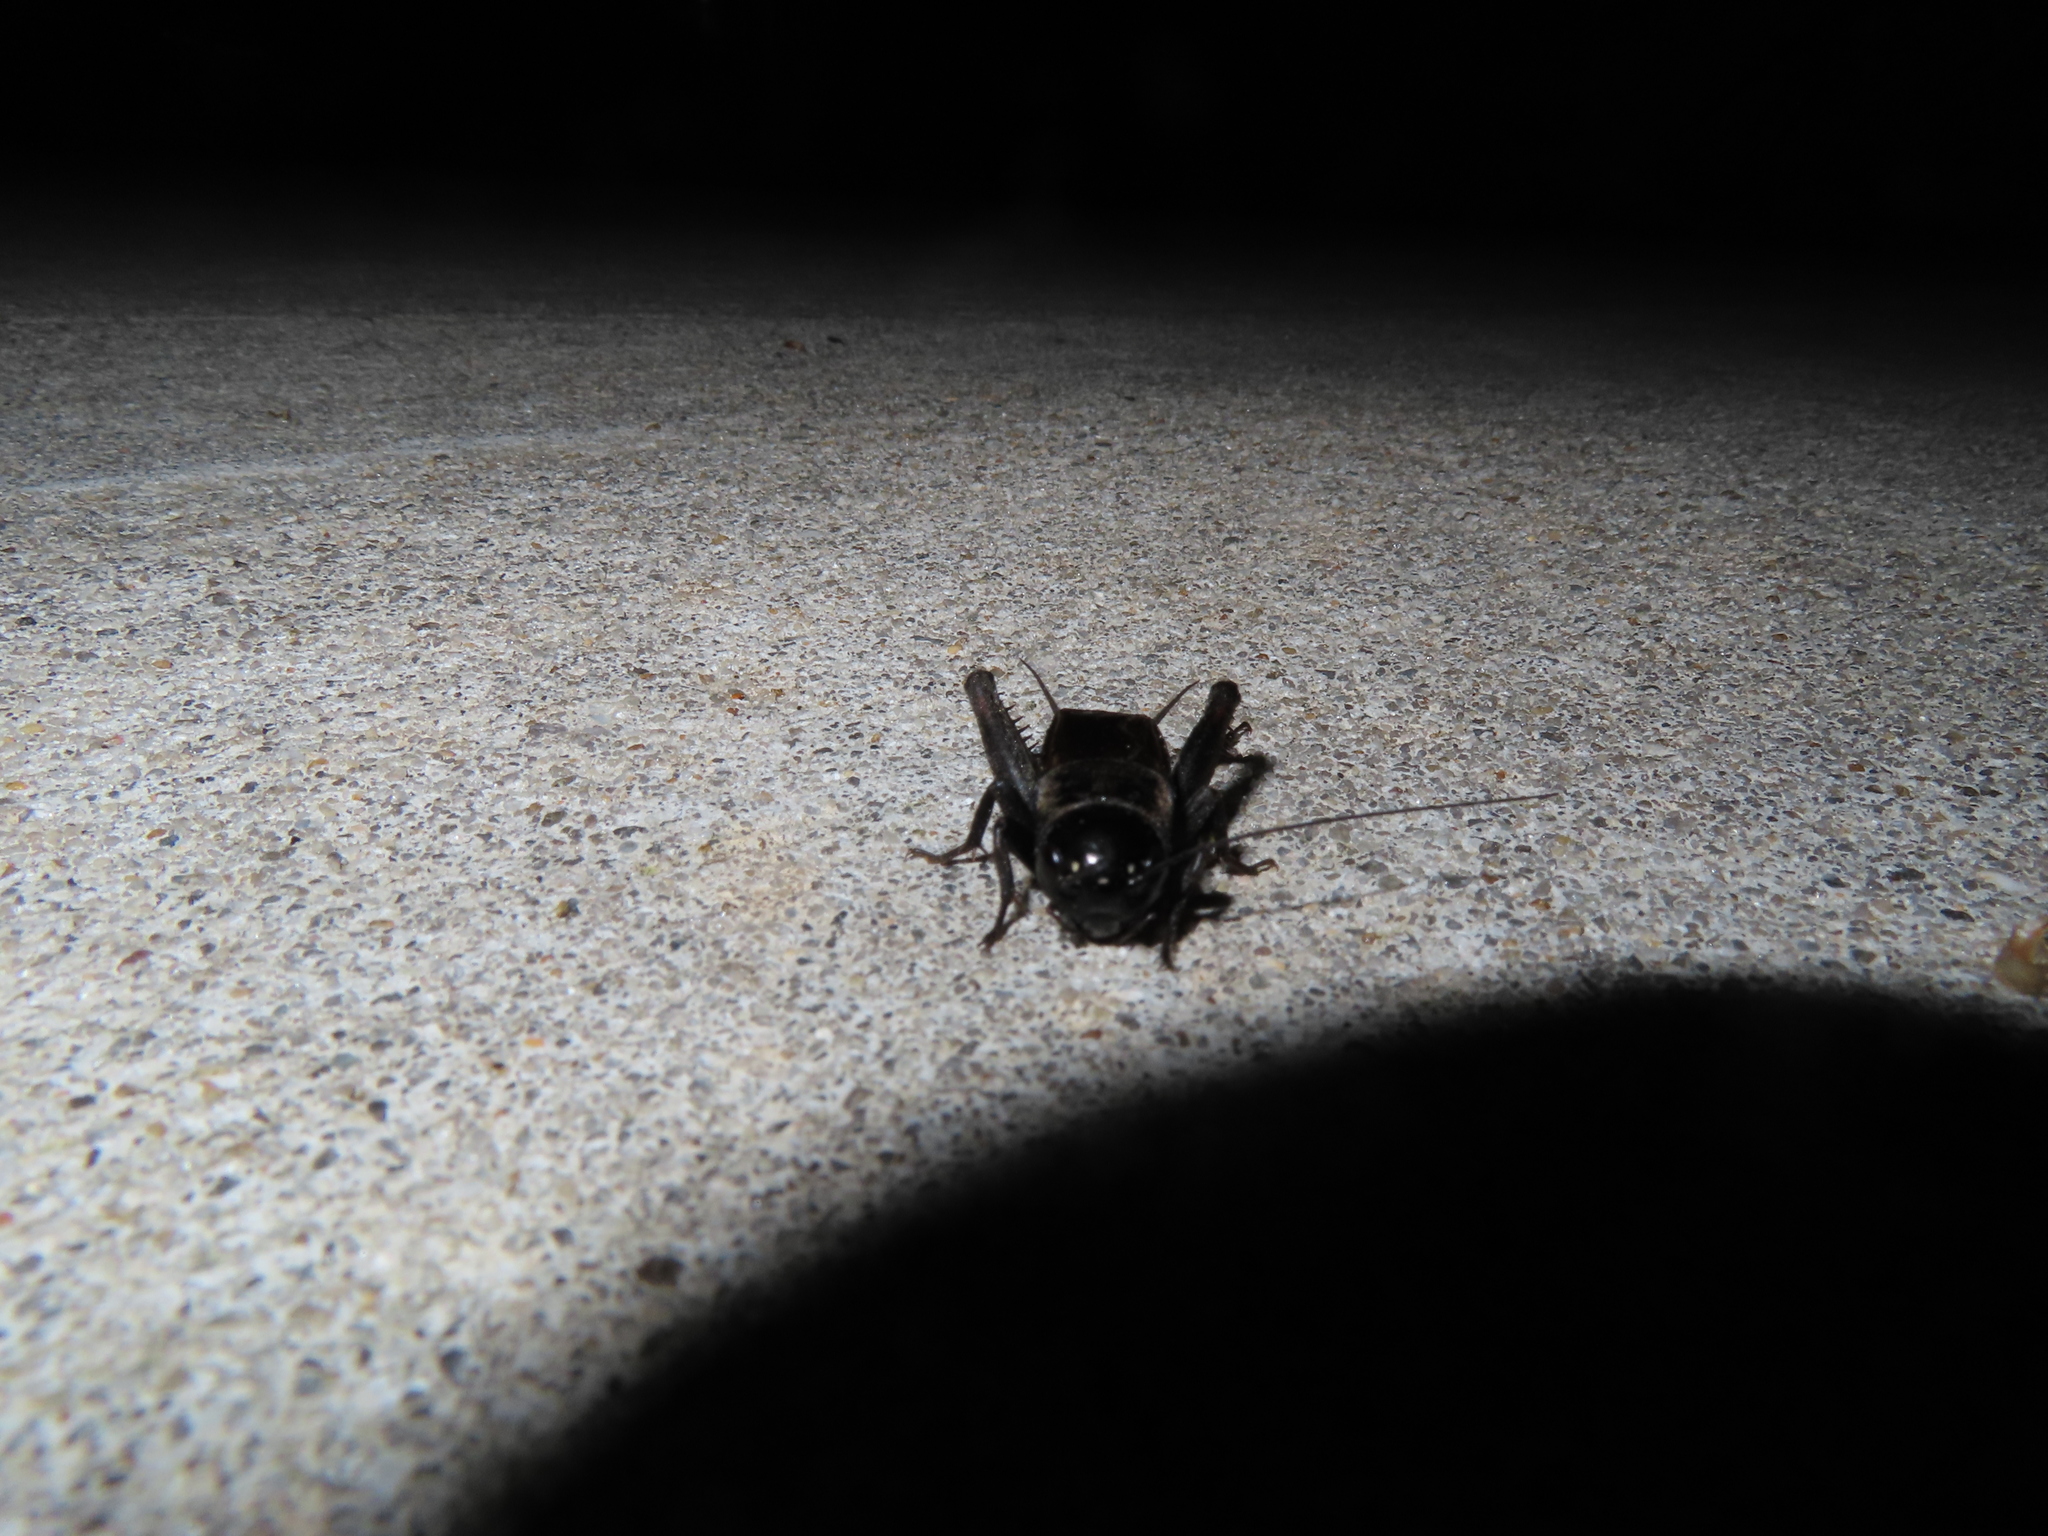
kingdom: Animalia
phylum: Arthropoda
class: Insecta
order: Orthoptera
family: Gryllidae
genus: Gryllus
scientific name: Gryllus veletis
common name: Spring field cricket
